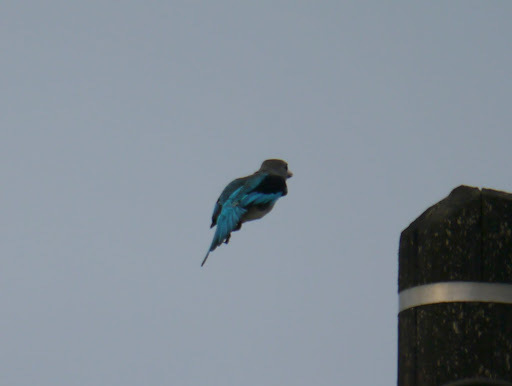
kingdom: Animalia
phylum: Chordata
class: Aves
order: Coraciiformes
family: Alcedinidae
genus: Halcyon
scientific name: Halcyon senegalensis
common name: Woodland kingfisher
